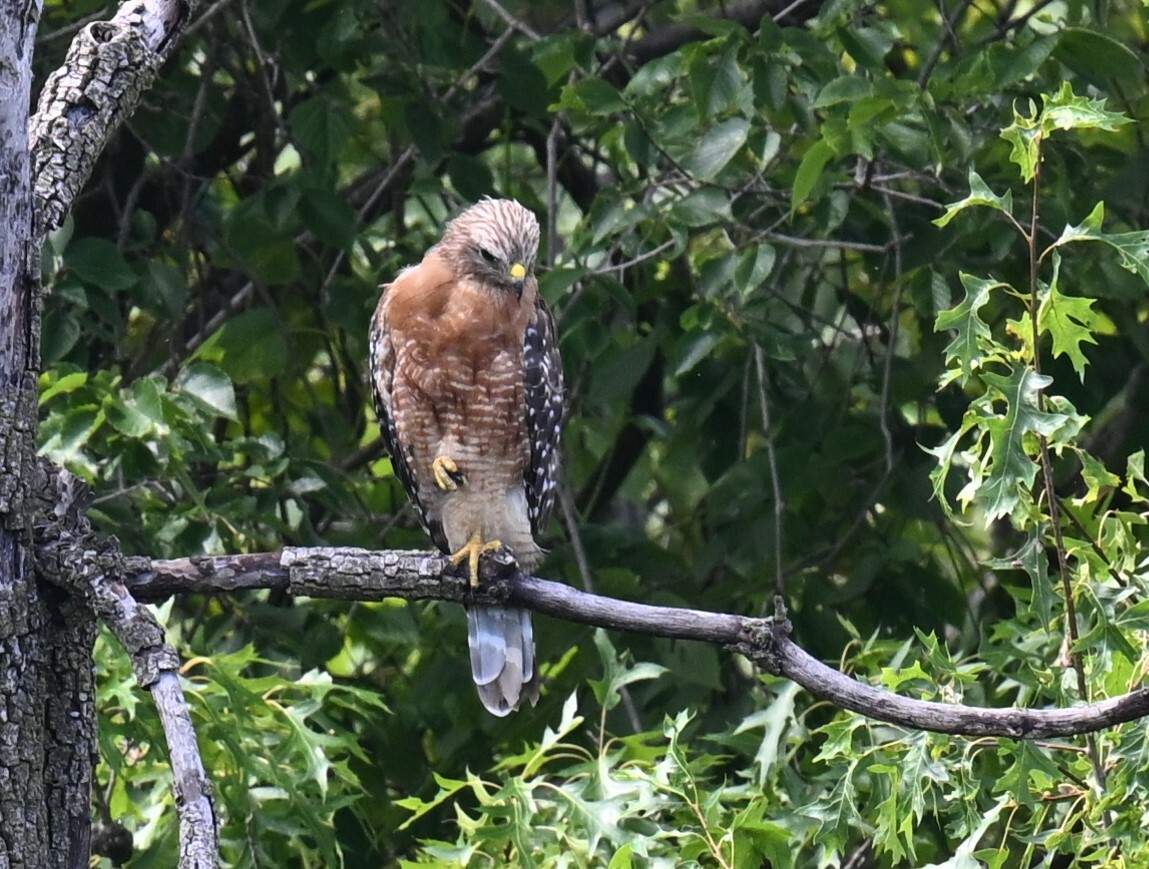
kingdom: Animalia
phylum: Chordata
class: Aves
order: Accipitriformes
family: Accipitridae
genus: Buteo
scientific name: Buteo lineatus
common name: Red-shouldered hawk
